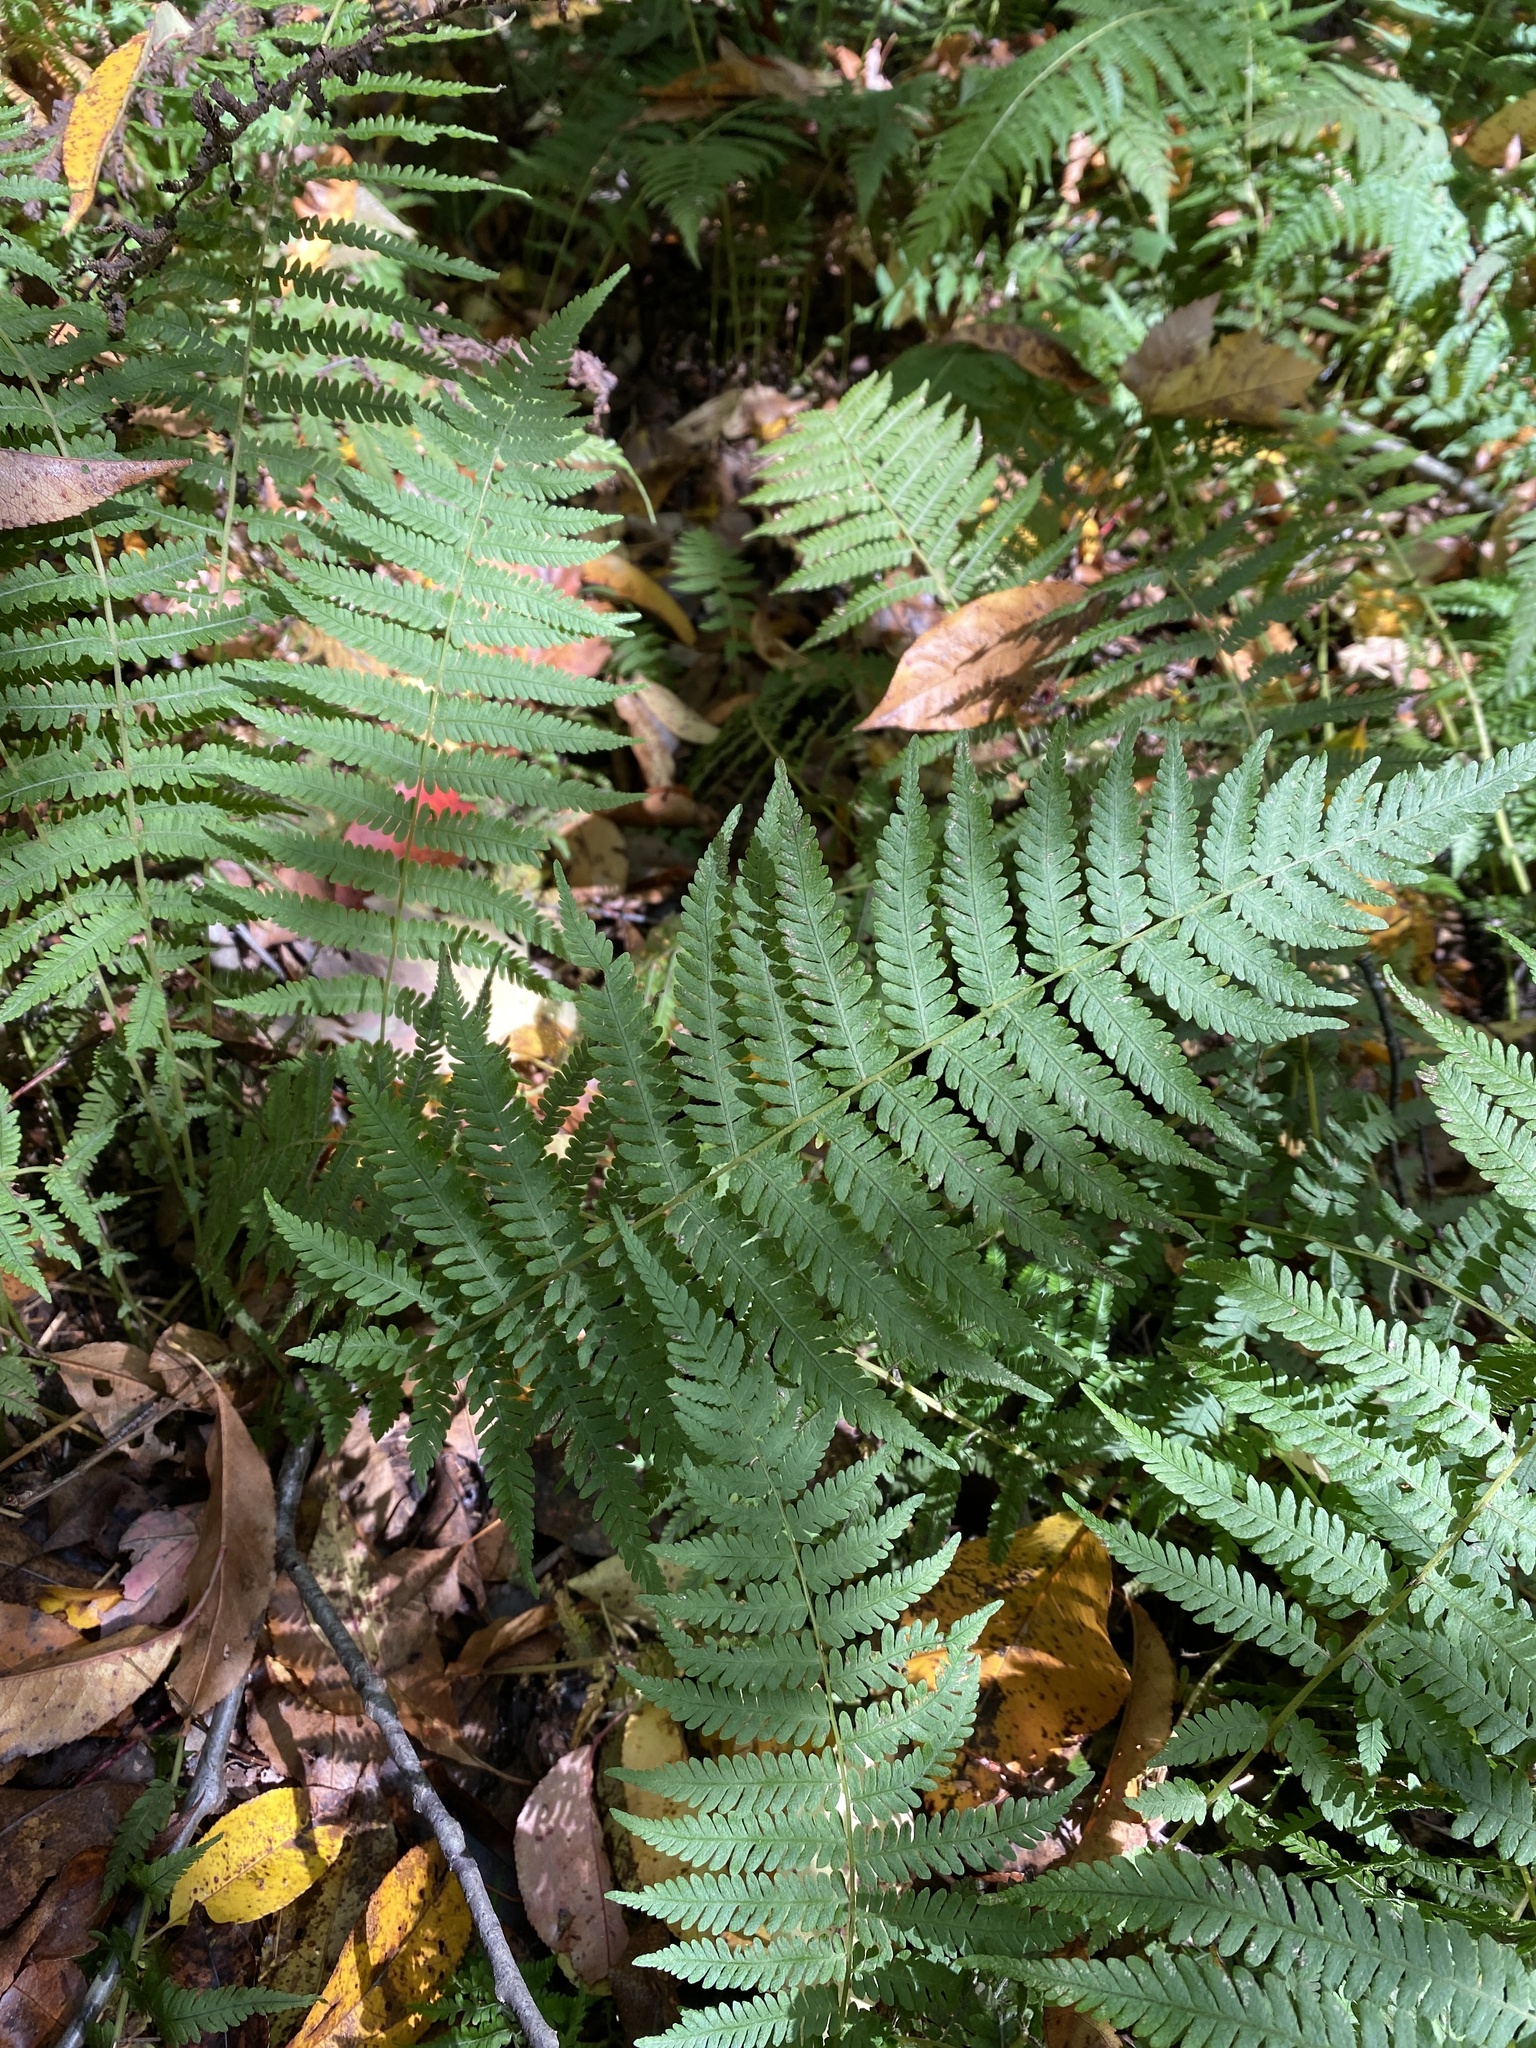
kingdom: Plantae
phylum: Tracheophyta
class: Polypodiopsida
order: Polypodiales
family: Thelypteridaceae
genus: Amauropelta
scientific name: Amauropelta noveboracensis
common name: New york fern
